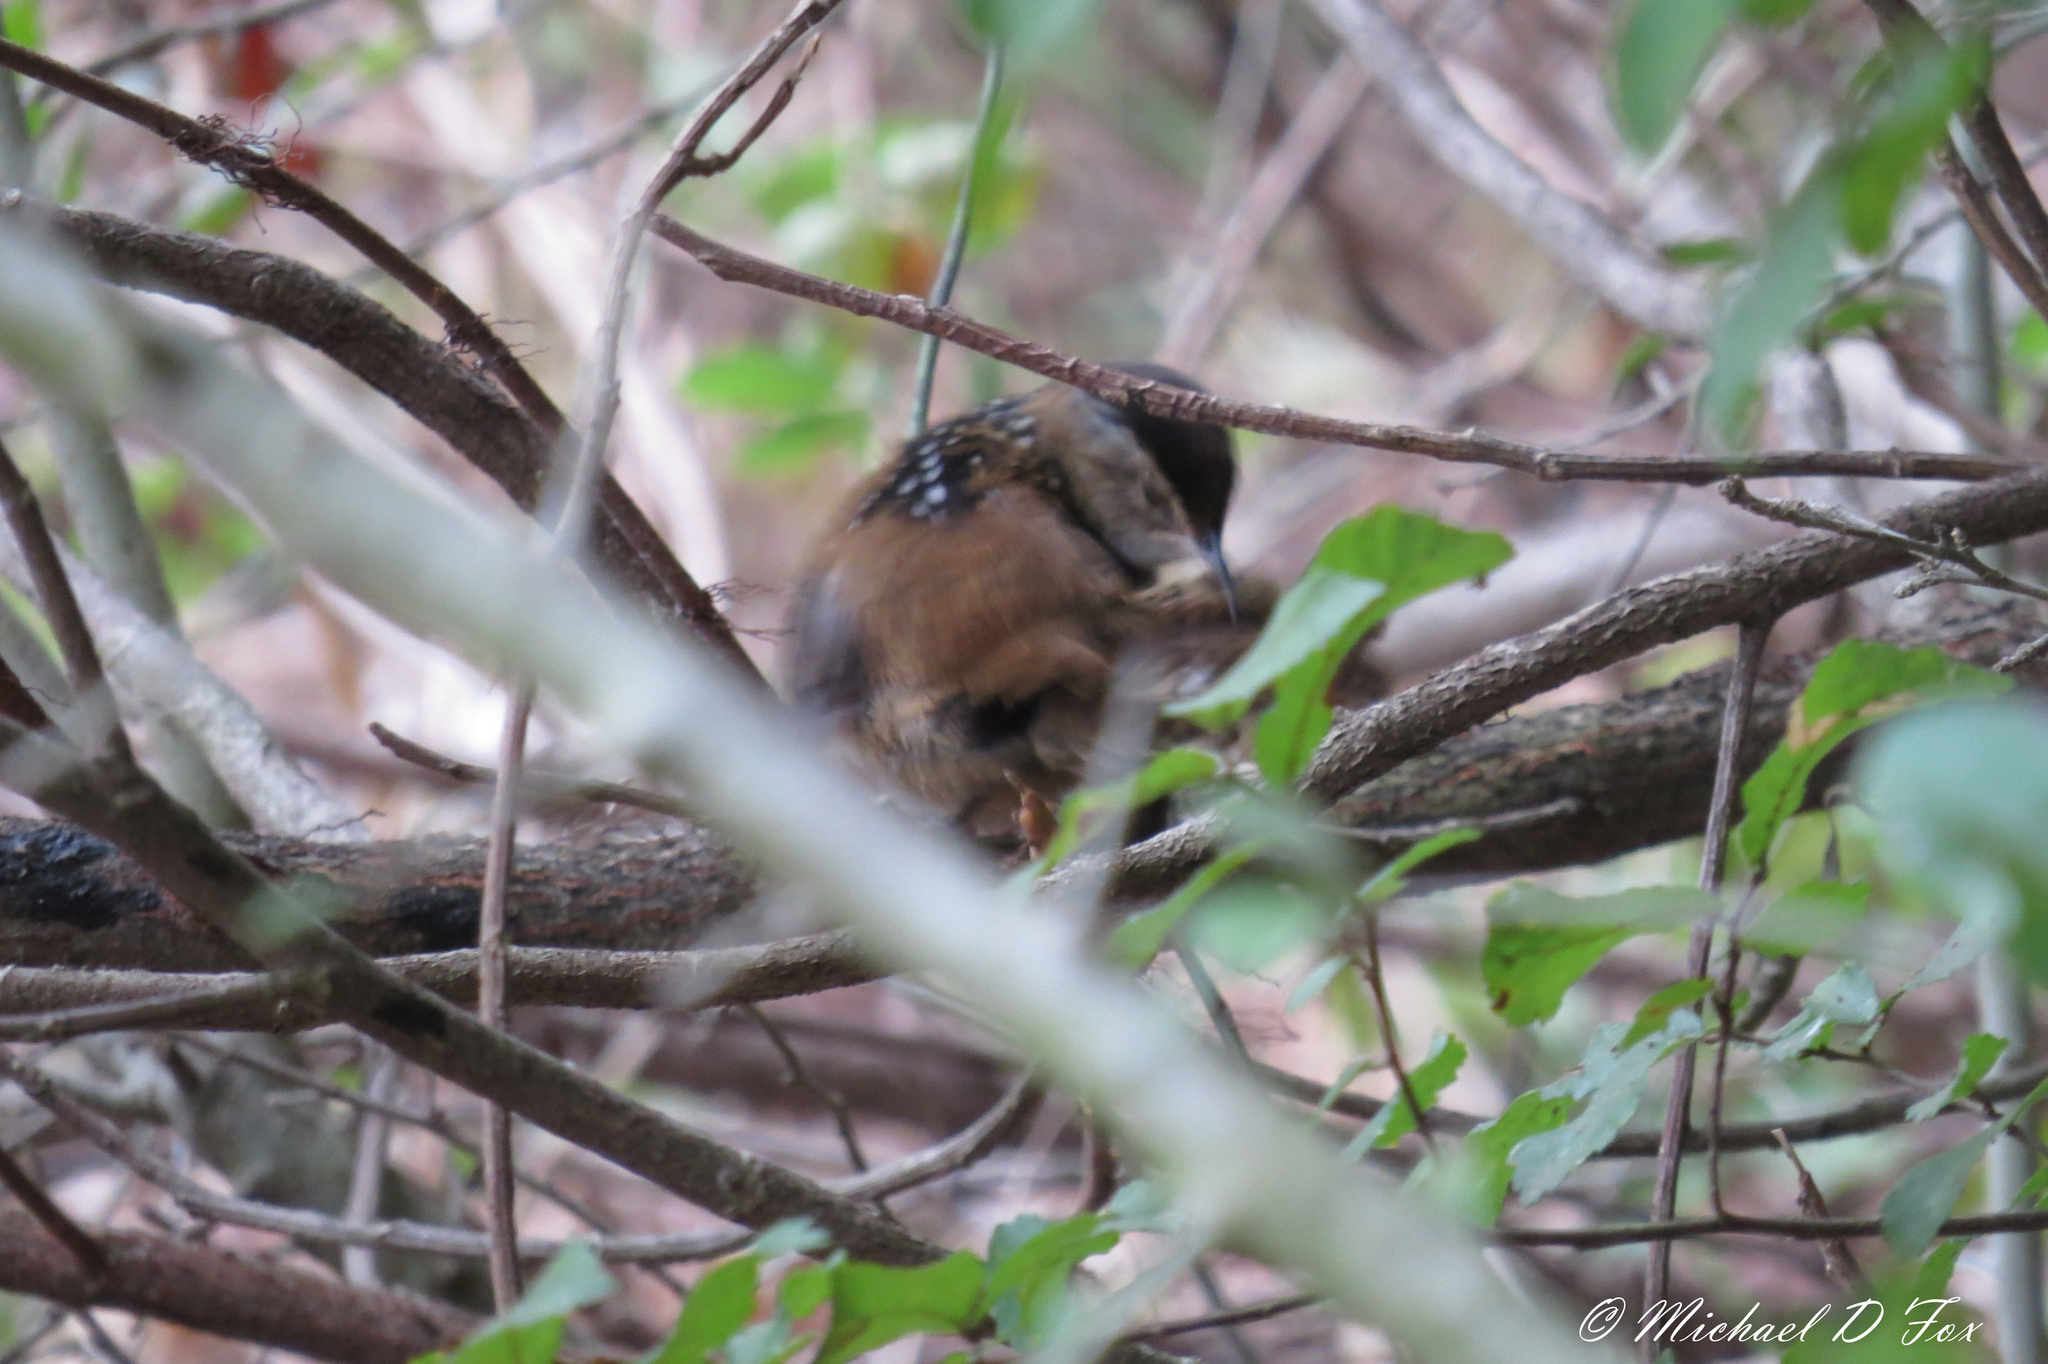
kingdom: Animalia
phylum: Chordata
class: Aves
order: Passeriformes
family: Troglodytidae
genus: Cistothorus
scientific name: Cistothorus palustris
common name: Marsh wren
